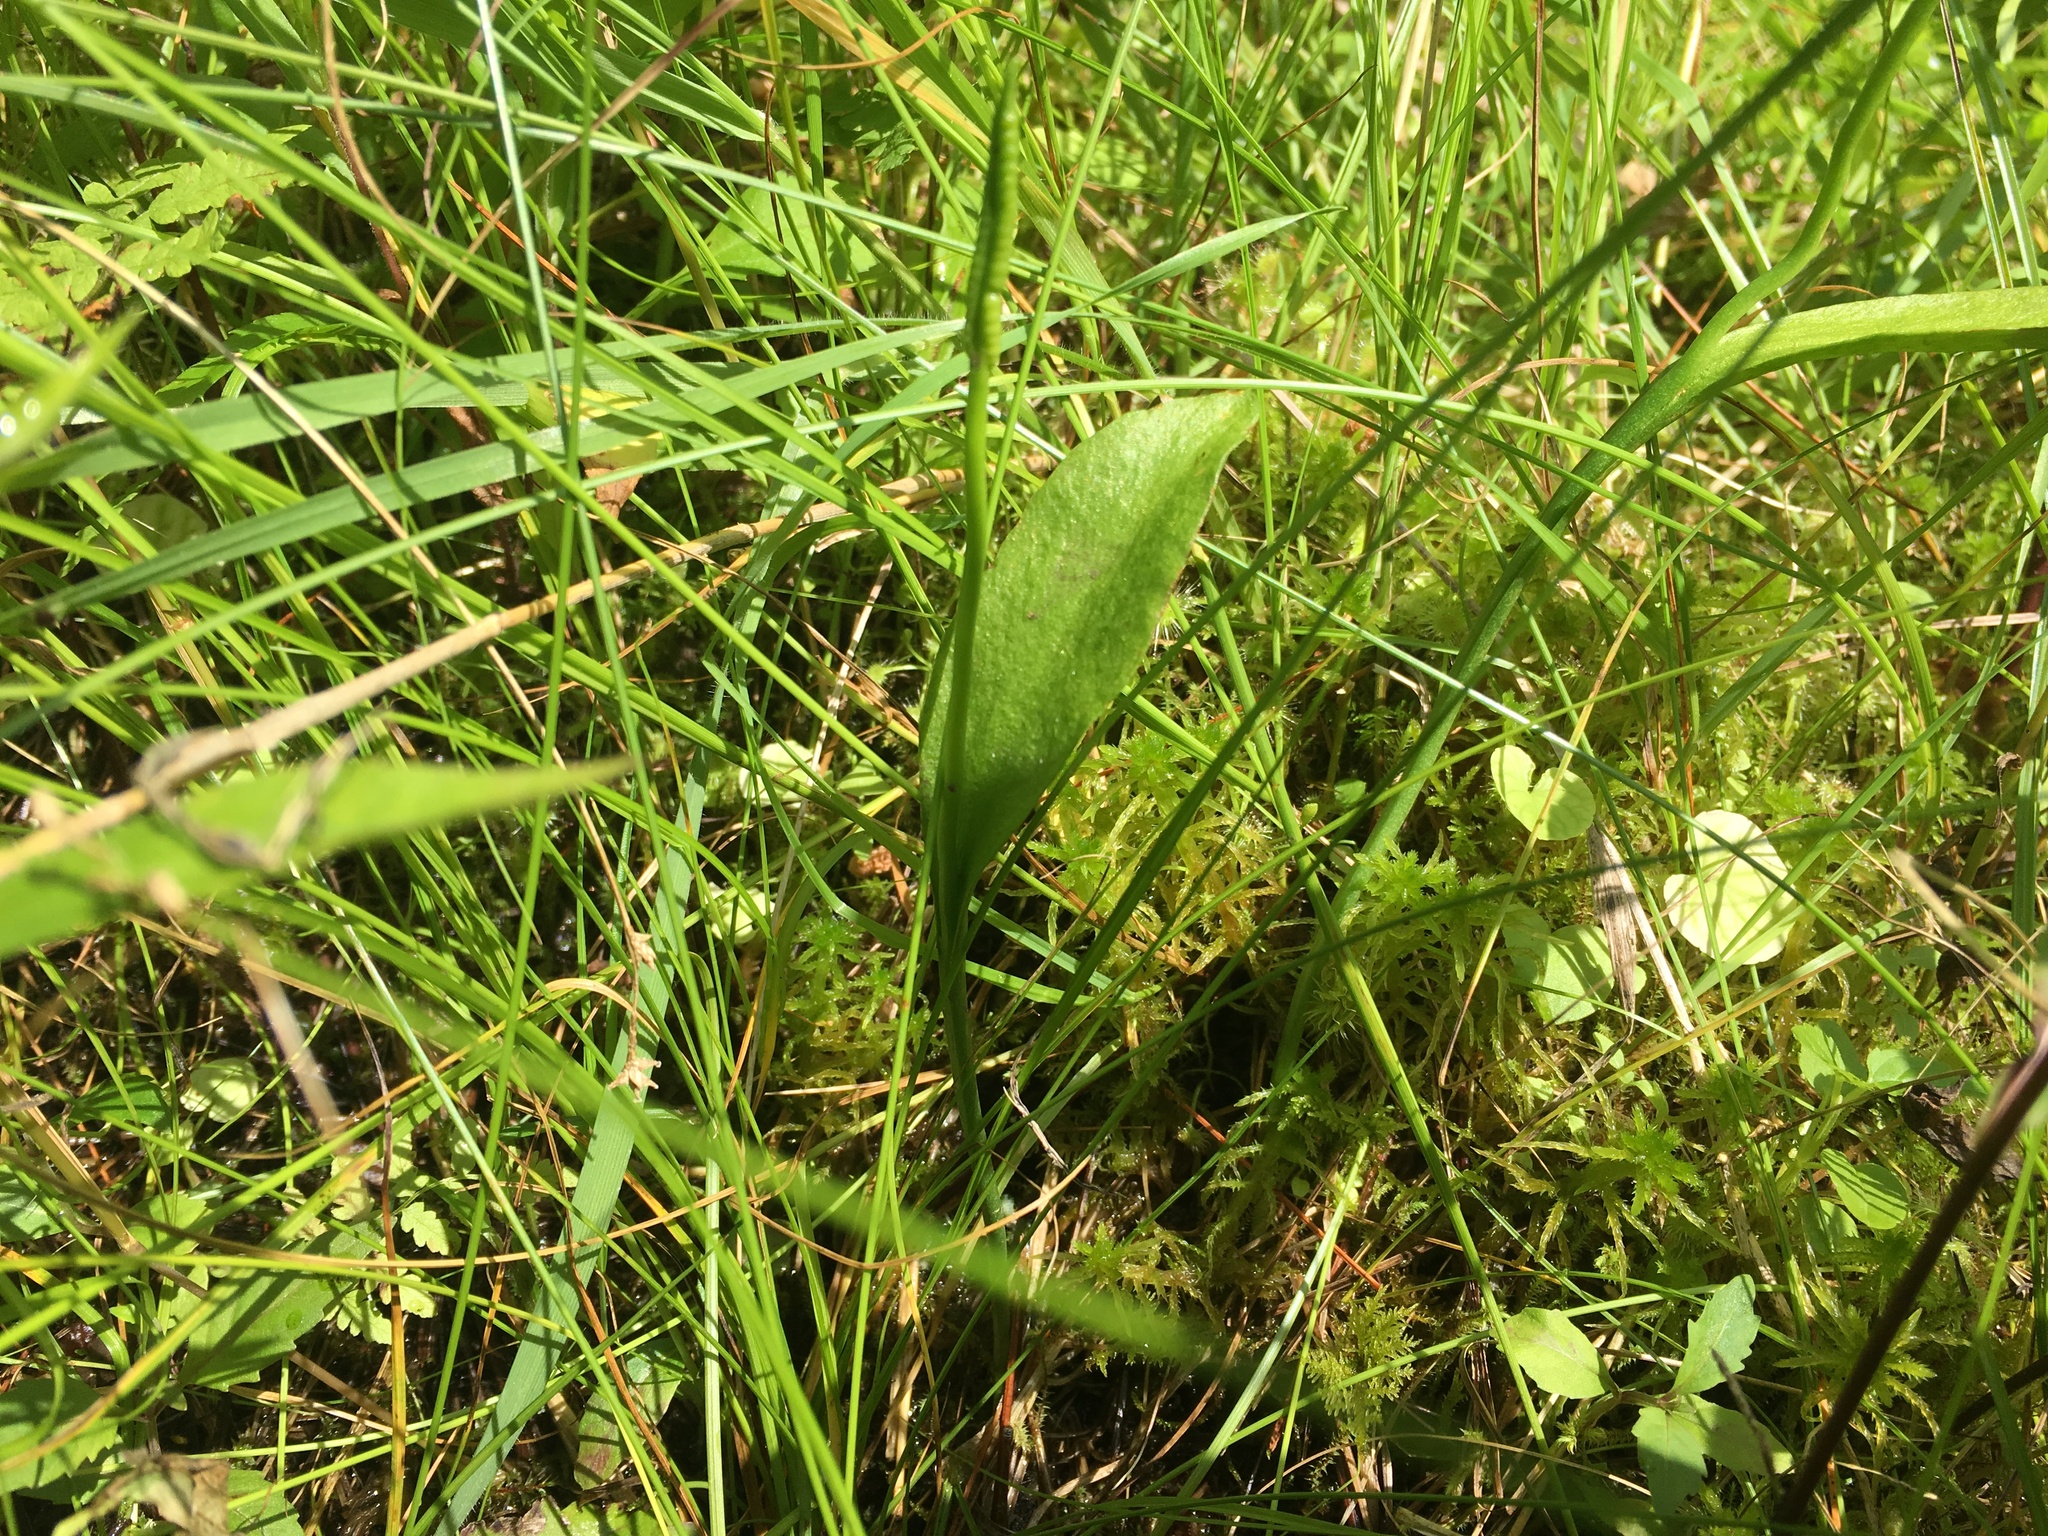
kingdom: Plantae
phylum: Tracheophyta
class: Polypodiopsida
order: Ophioglossales
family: Ophioglossaceae
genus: Ophioglossum
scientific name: Ophioglossum pusillum
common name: Northern adder's-tongue
